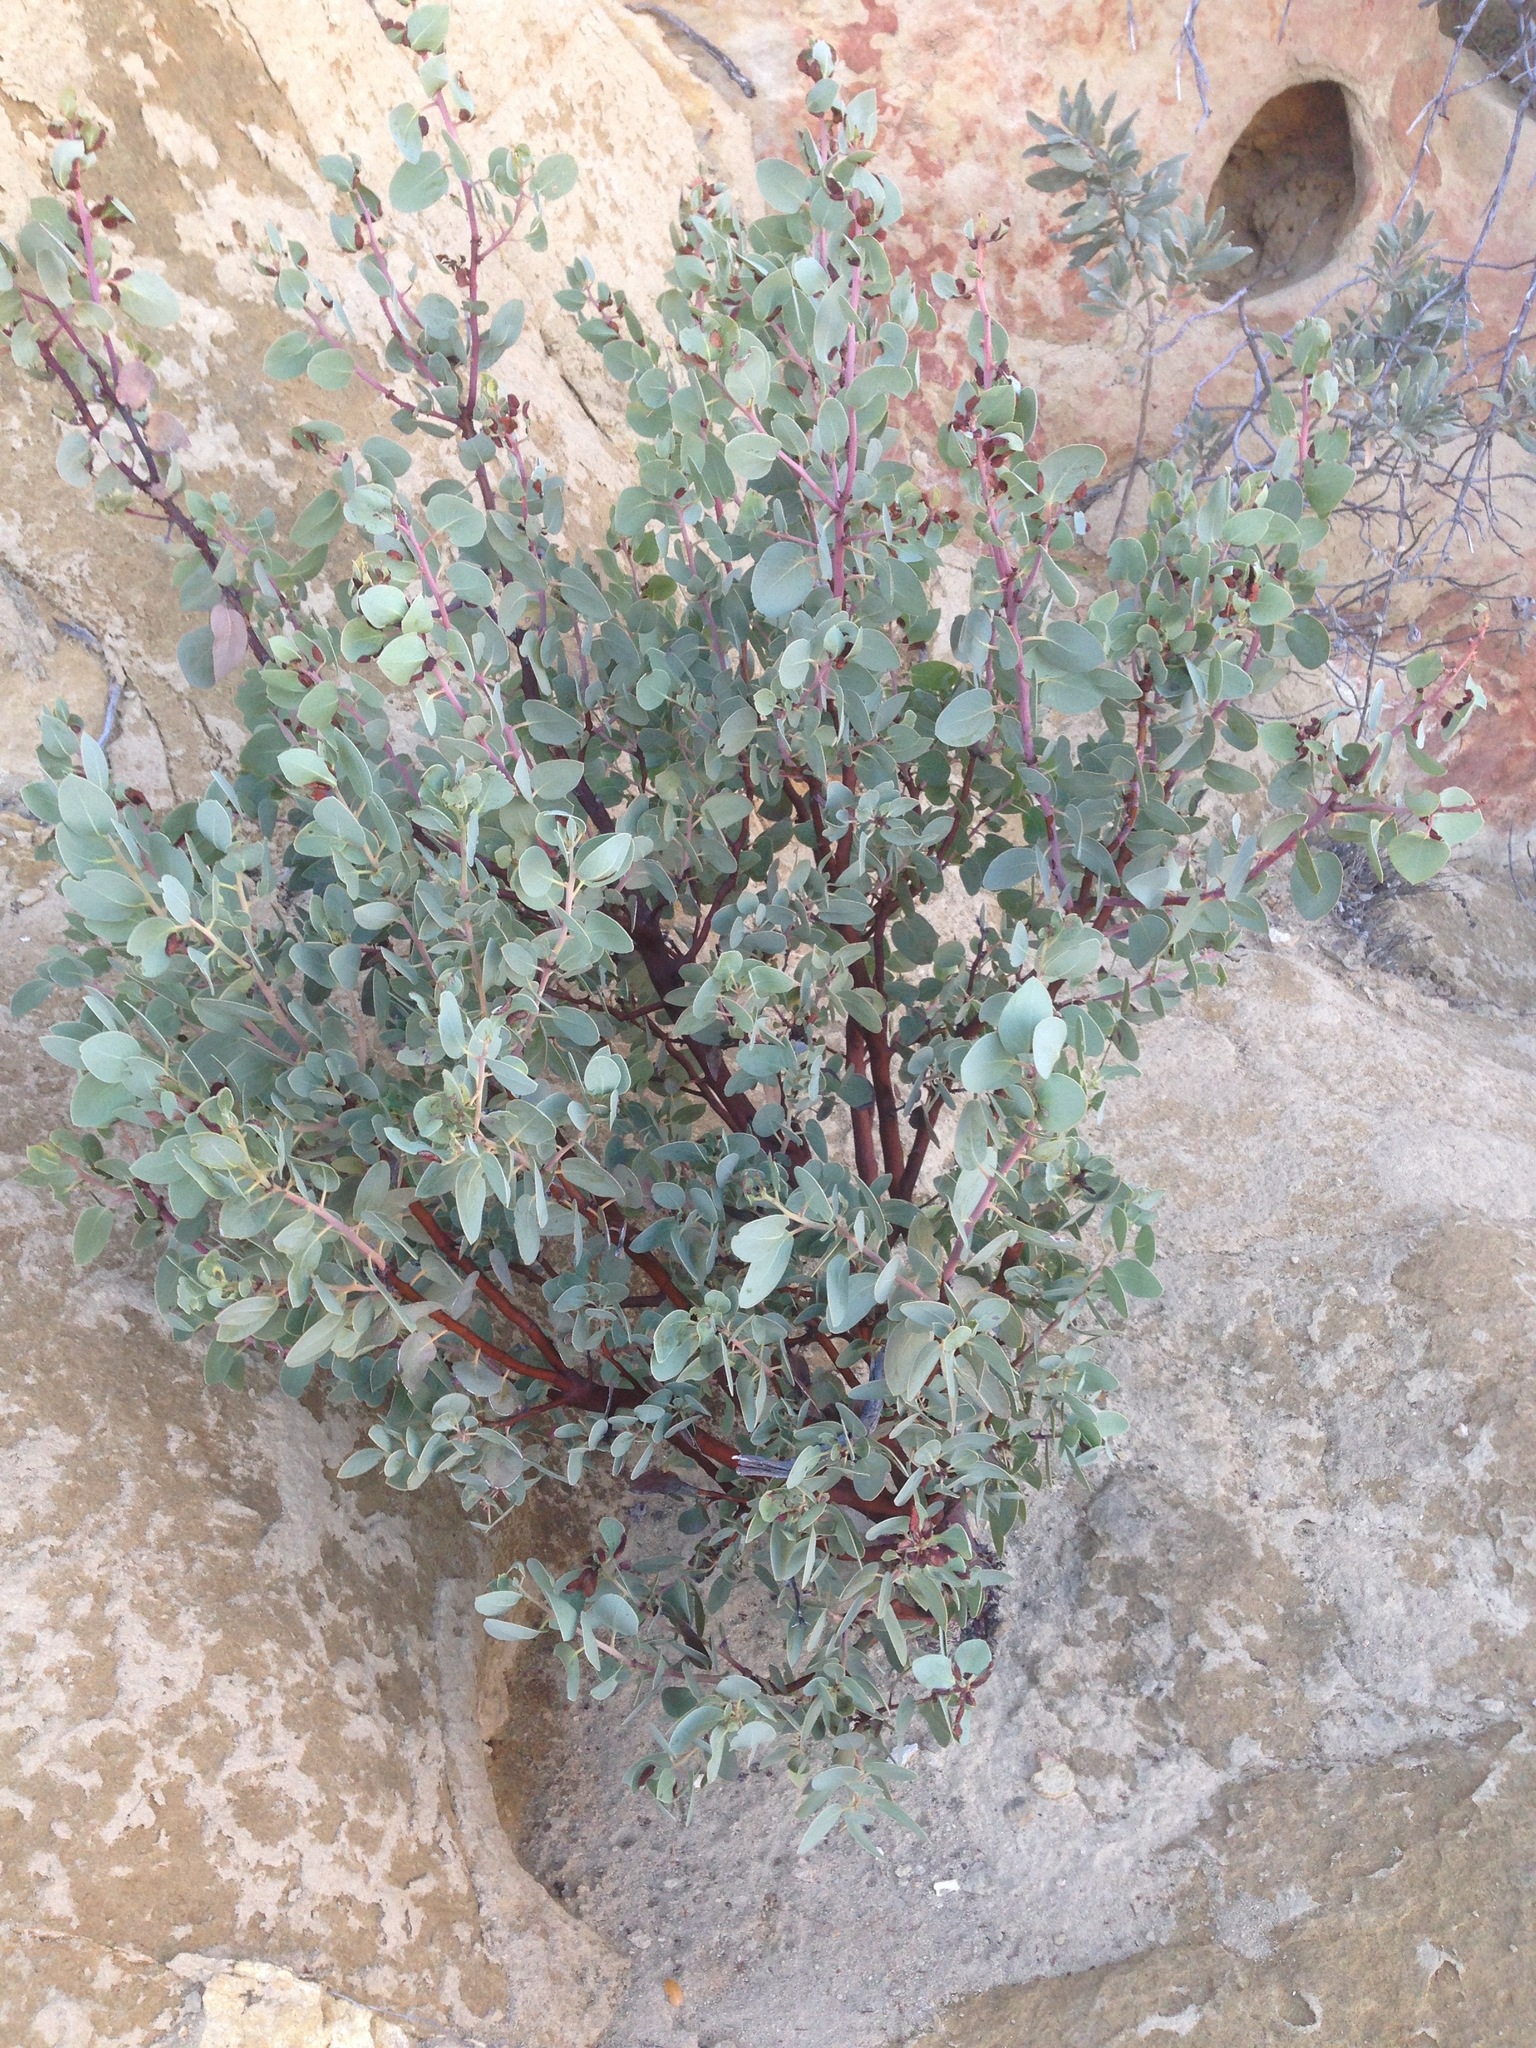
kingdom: Plantae
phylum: Tracheophyta
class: Magnoliopsida
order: Ericales
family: Ericaceae
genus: Arctostaphylos
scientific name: Arctostaphylos glauca
